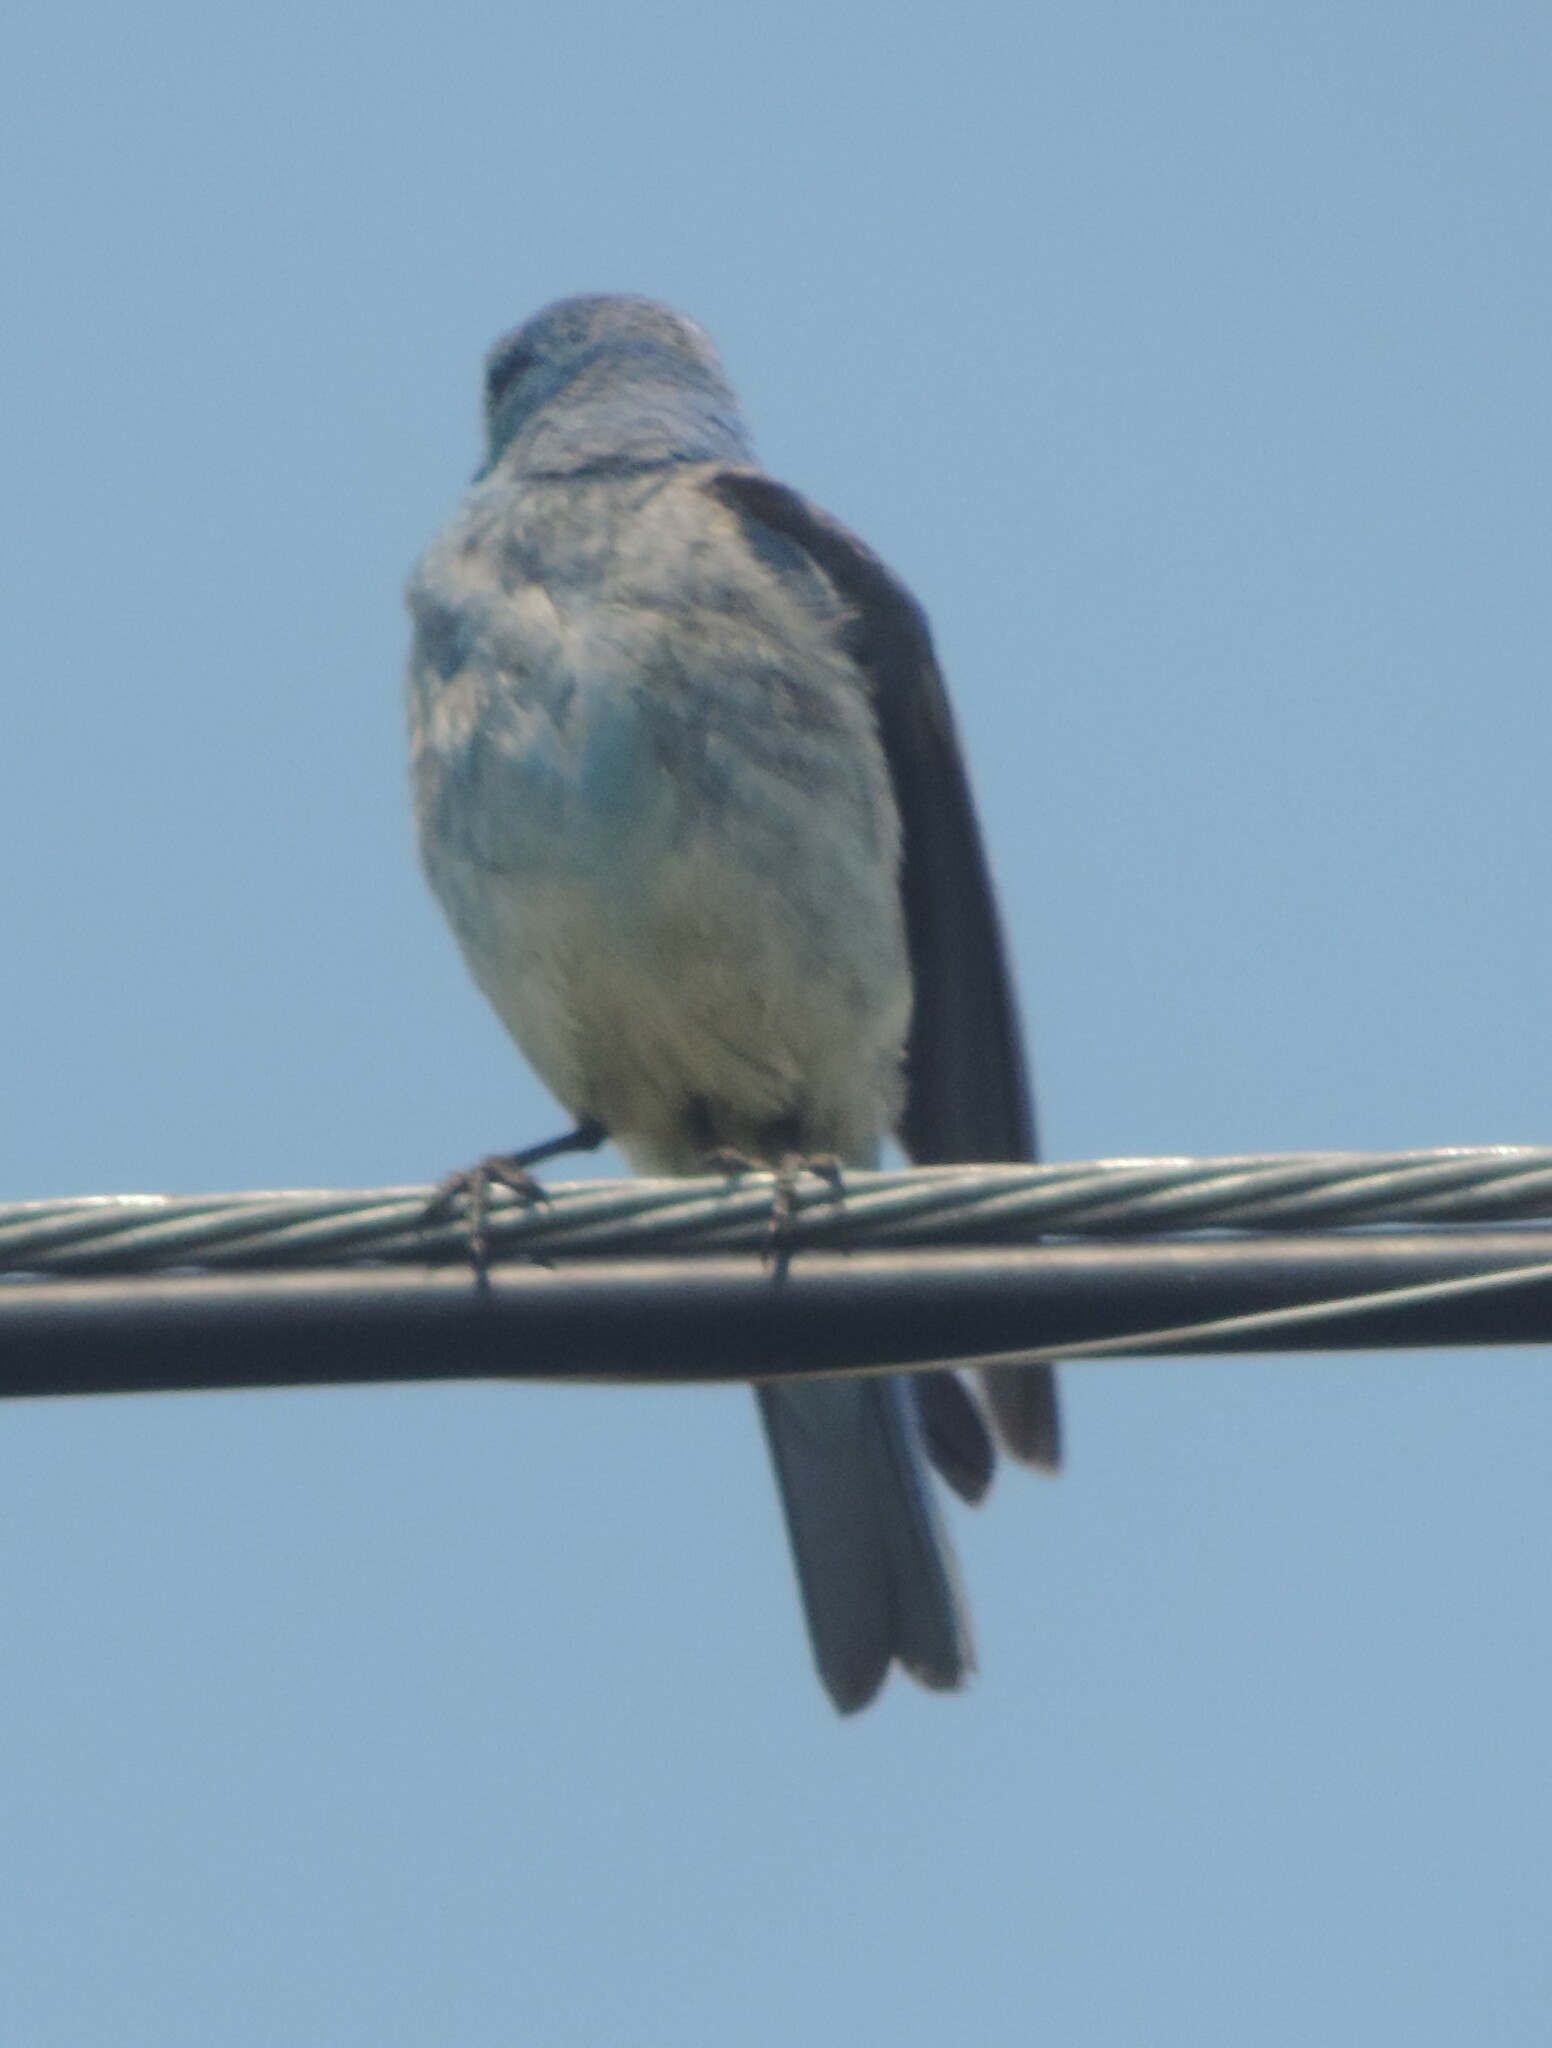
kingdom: Animalia
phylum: Chordata
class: Aves
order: Passeriformes
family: Turdidae
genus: Sialia
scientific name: Sialia currucoides
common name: Mountain bluebird
